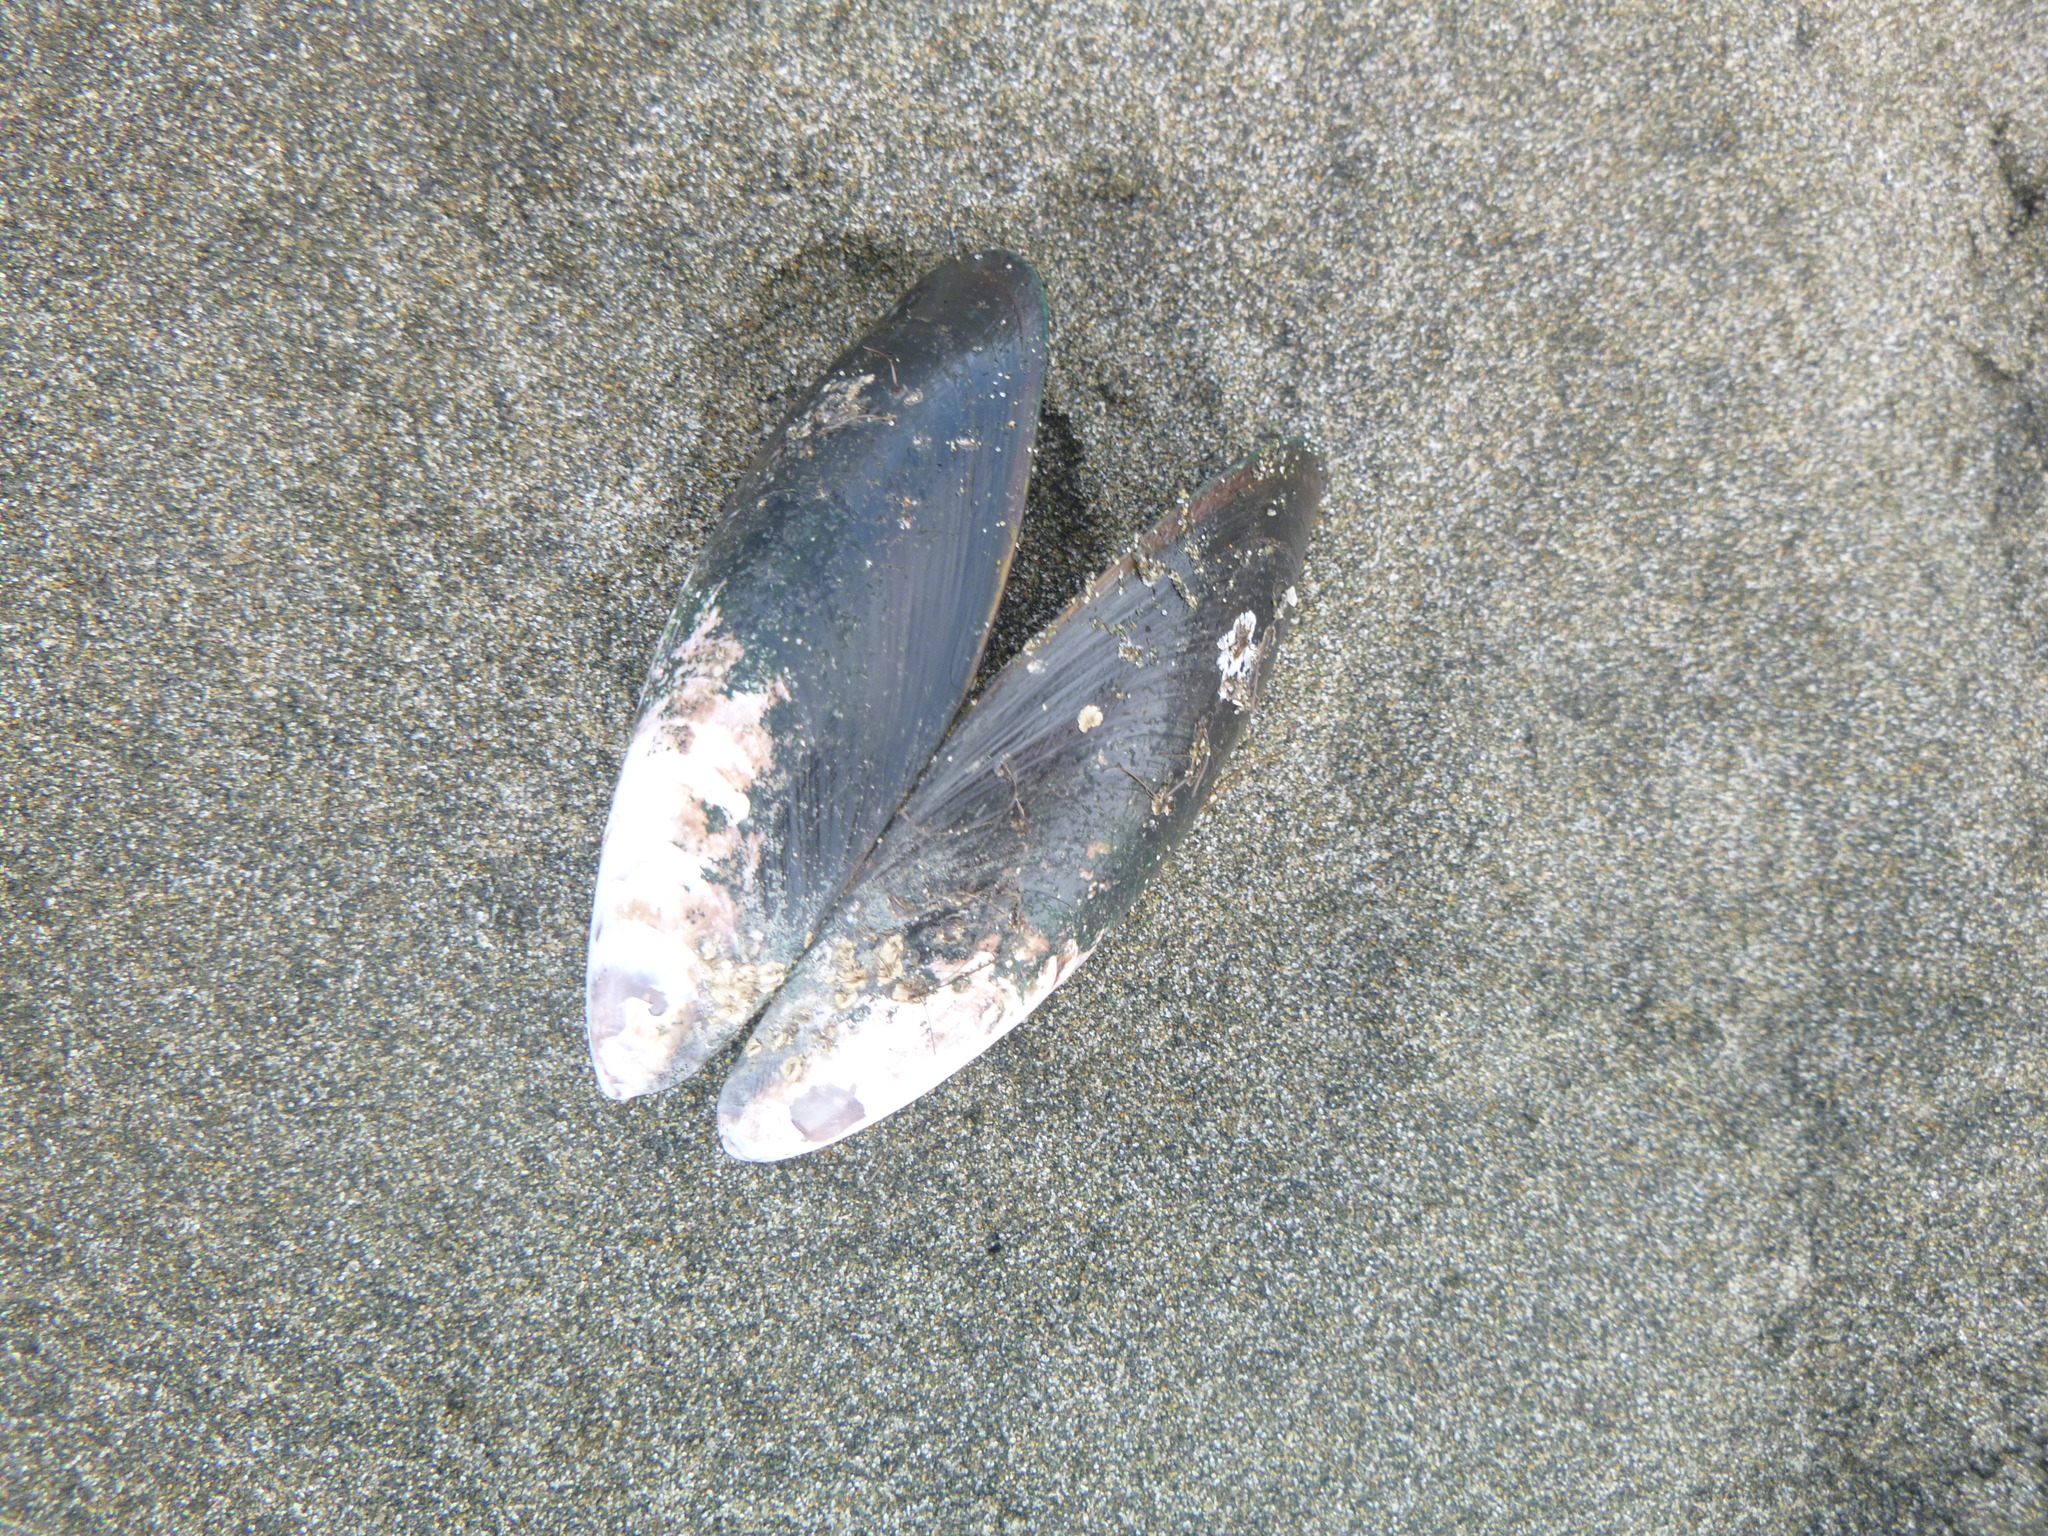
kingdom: Animalia
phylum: Mollusca
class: Bivalvia
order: Mytilida
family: Mytilidae
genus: Perna
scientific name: Perna canaliculus
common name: New zealand greenshelltm
